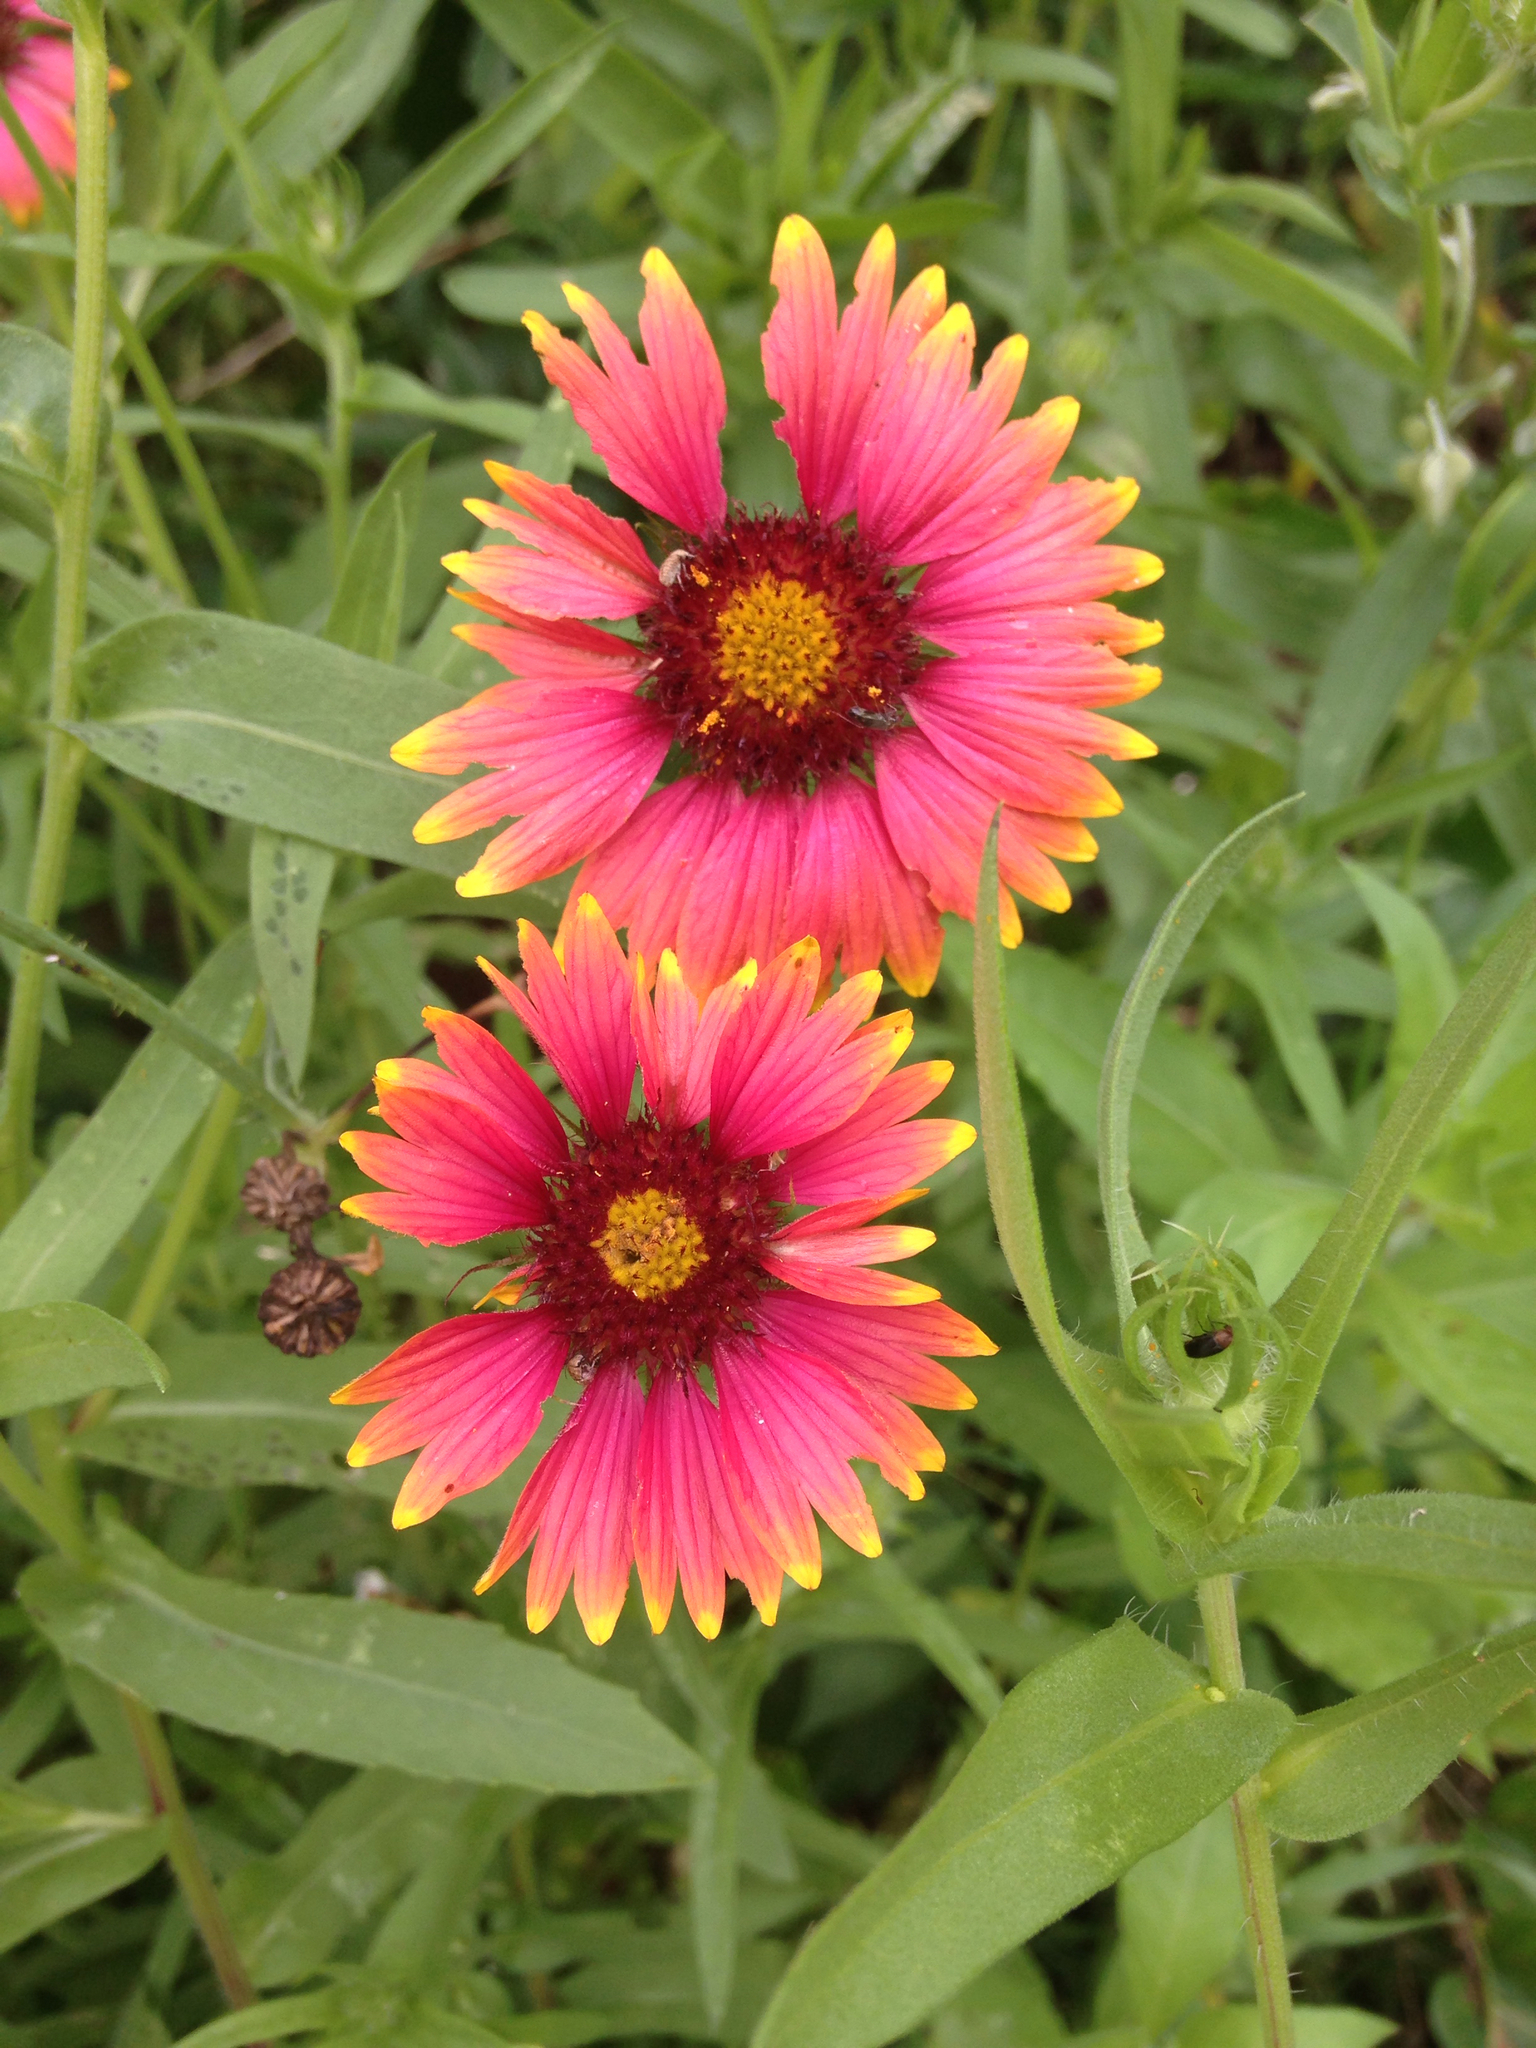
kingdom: Plantae
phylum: Tracheophyta
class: Magnoliopsida
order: Asterales
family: Asteraceae
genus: Gaillardia
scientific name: Gaillardia pulchella
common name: Firewheel
